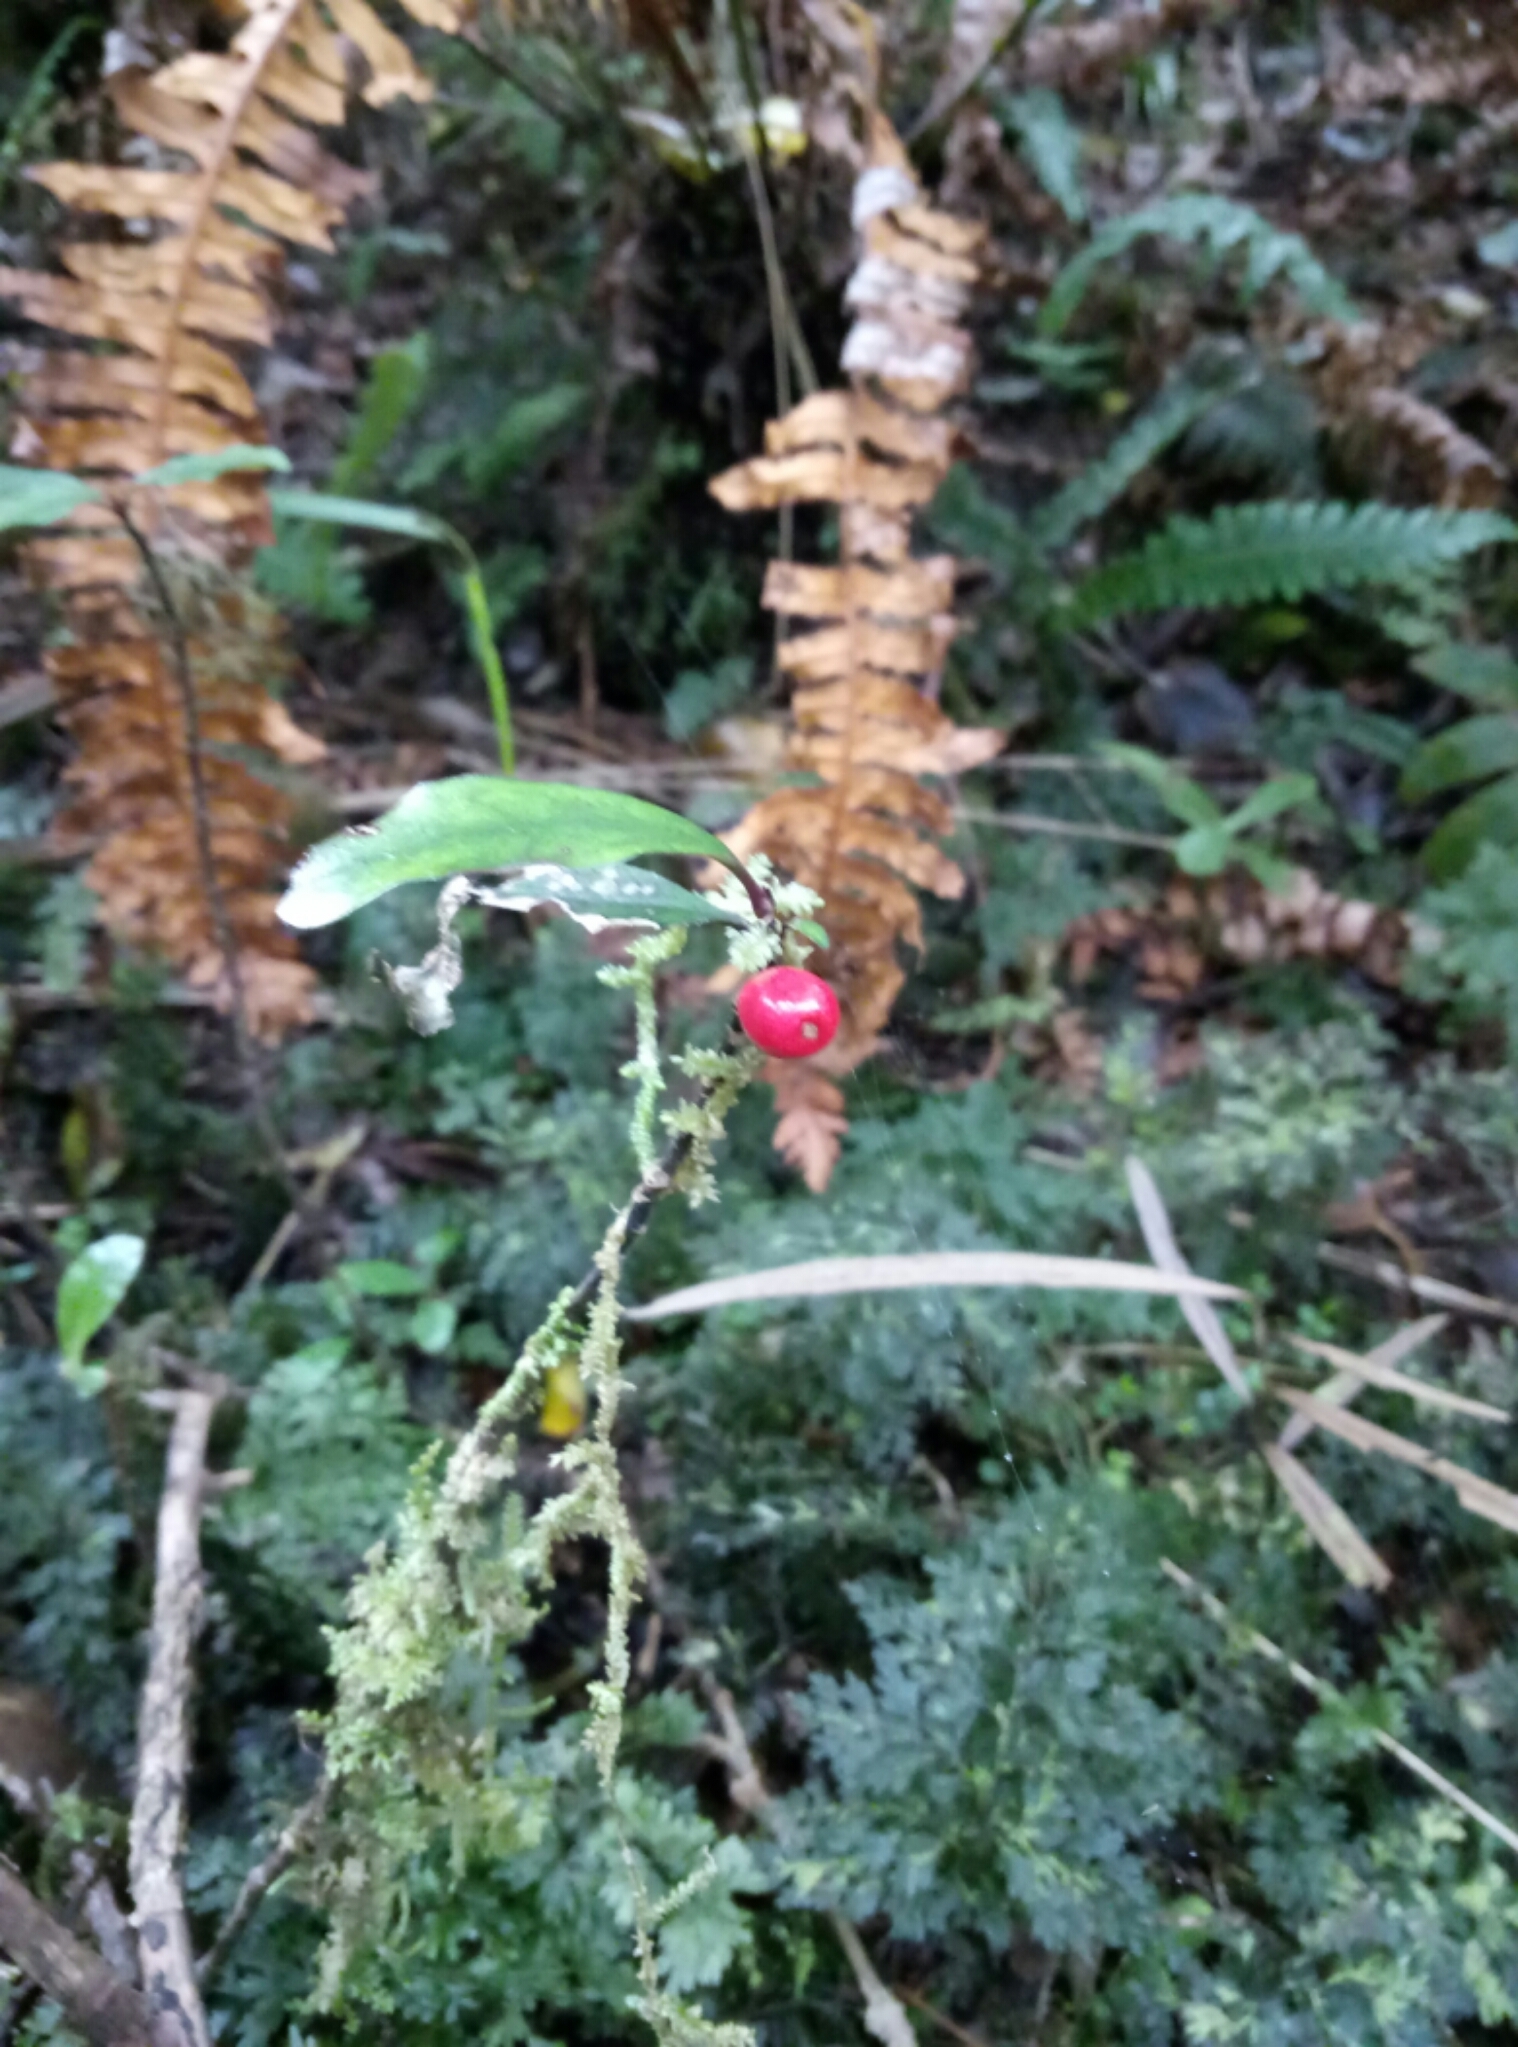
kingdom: Plantae
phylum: Tracheophyta
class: Magnoliopsida
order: Canellales
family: Winteraceae
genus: Pseudowintera
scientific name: Pseudowintera axillaris
